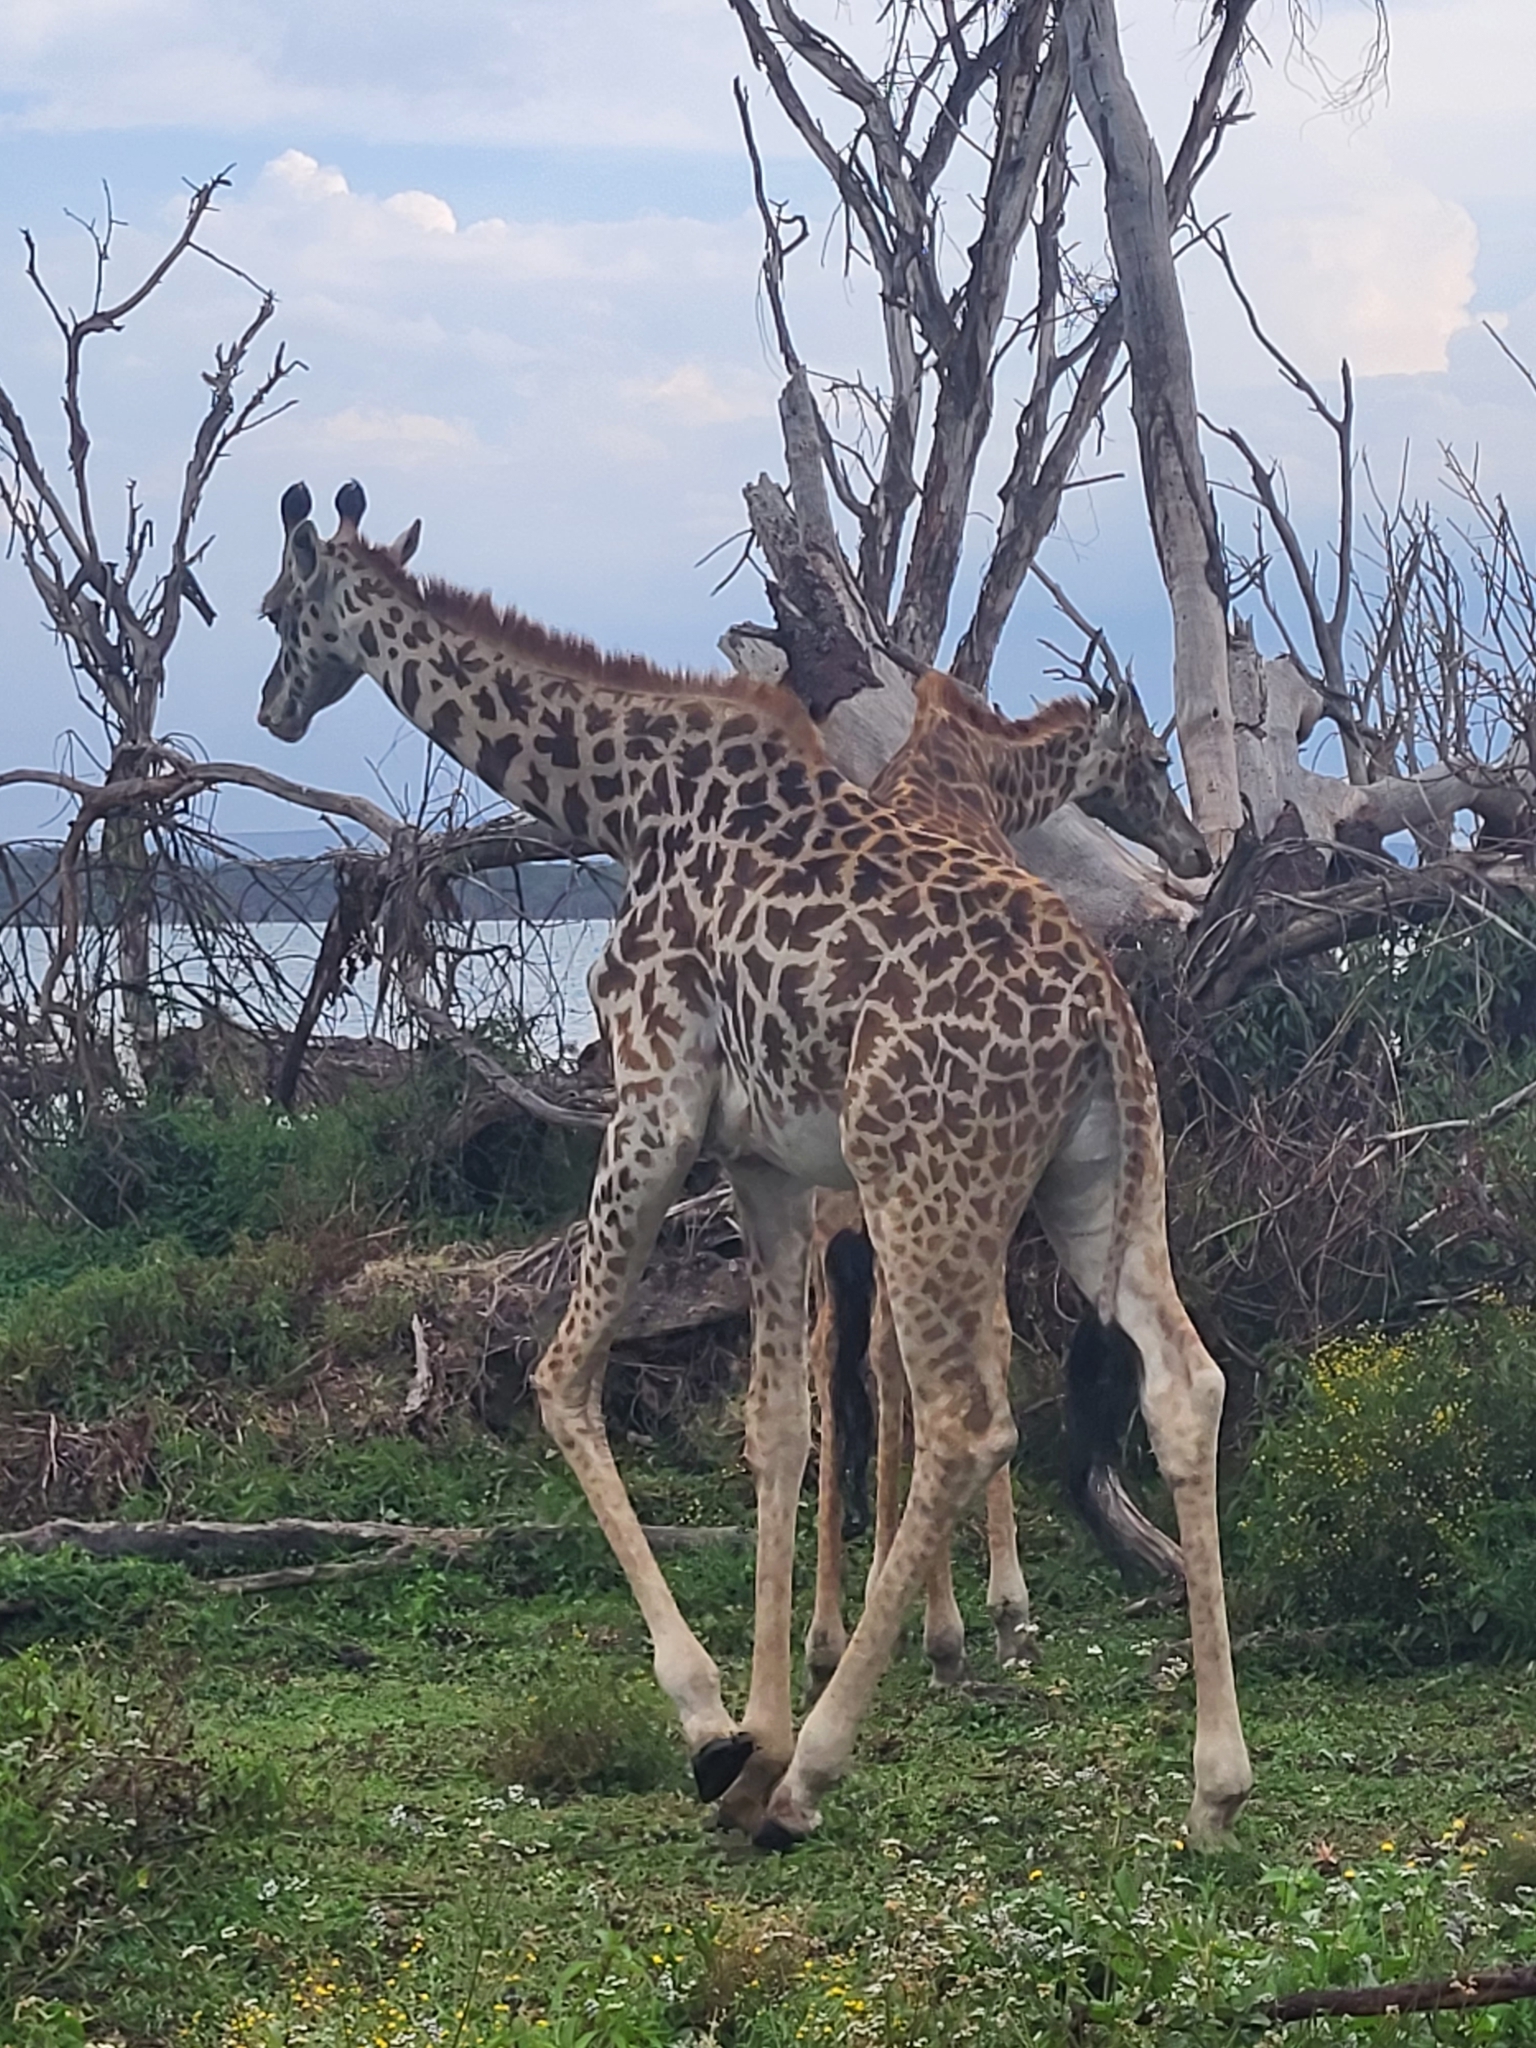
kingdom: Animalia
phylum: Chordata
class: Mammalia
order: Artiodactyla
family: Giraffidae
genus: Giraffa
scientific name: Giraffa tippelskirchi
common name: Masai giraffe
